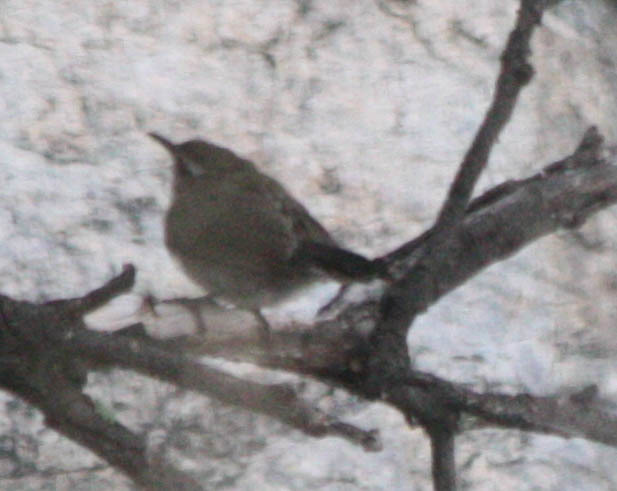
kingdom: Animalia
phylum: Chordata
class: Aves
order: Passeriformes
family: Troglodytidae
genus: Thryomanes
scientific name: Thryomanes bewickii
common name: Bewick's wren
